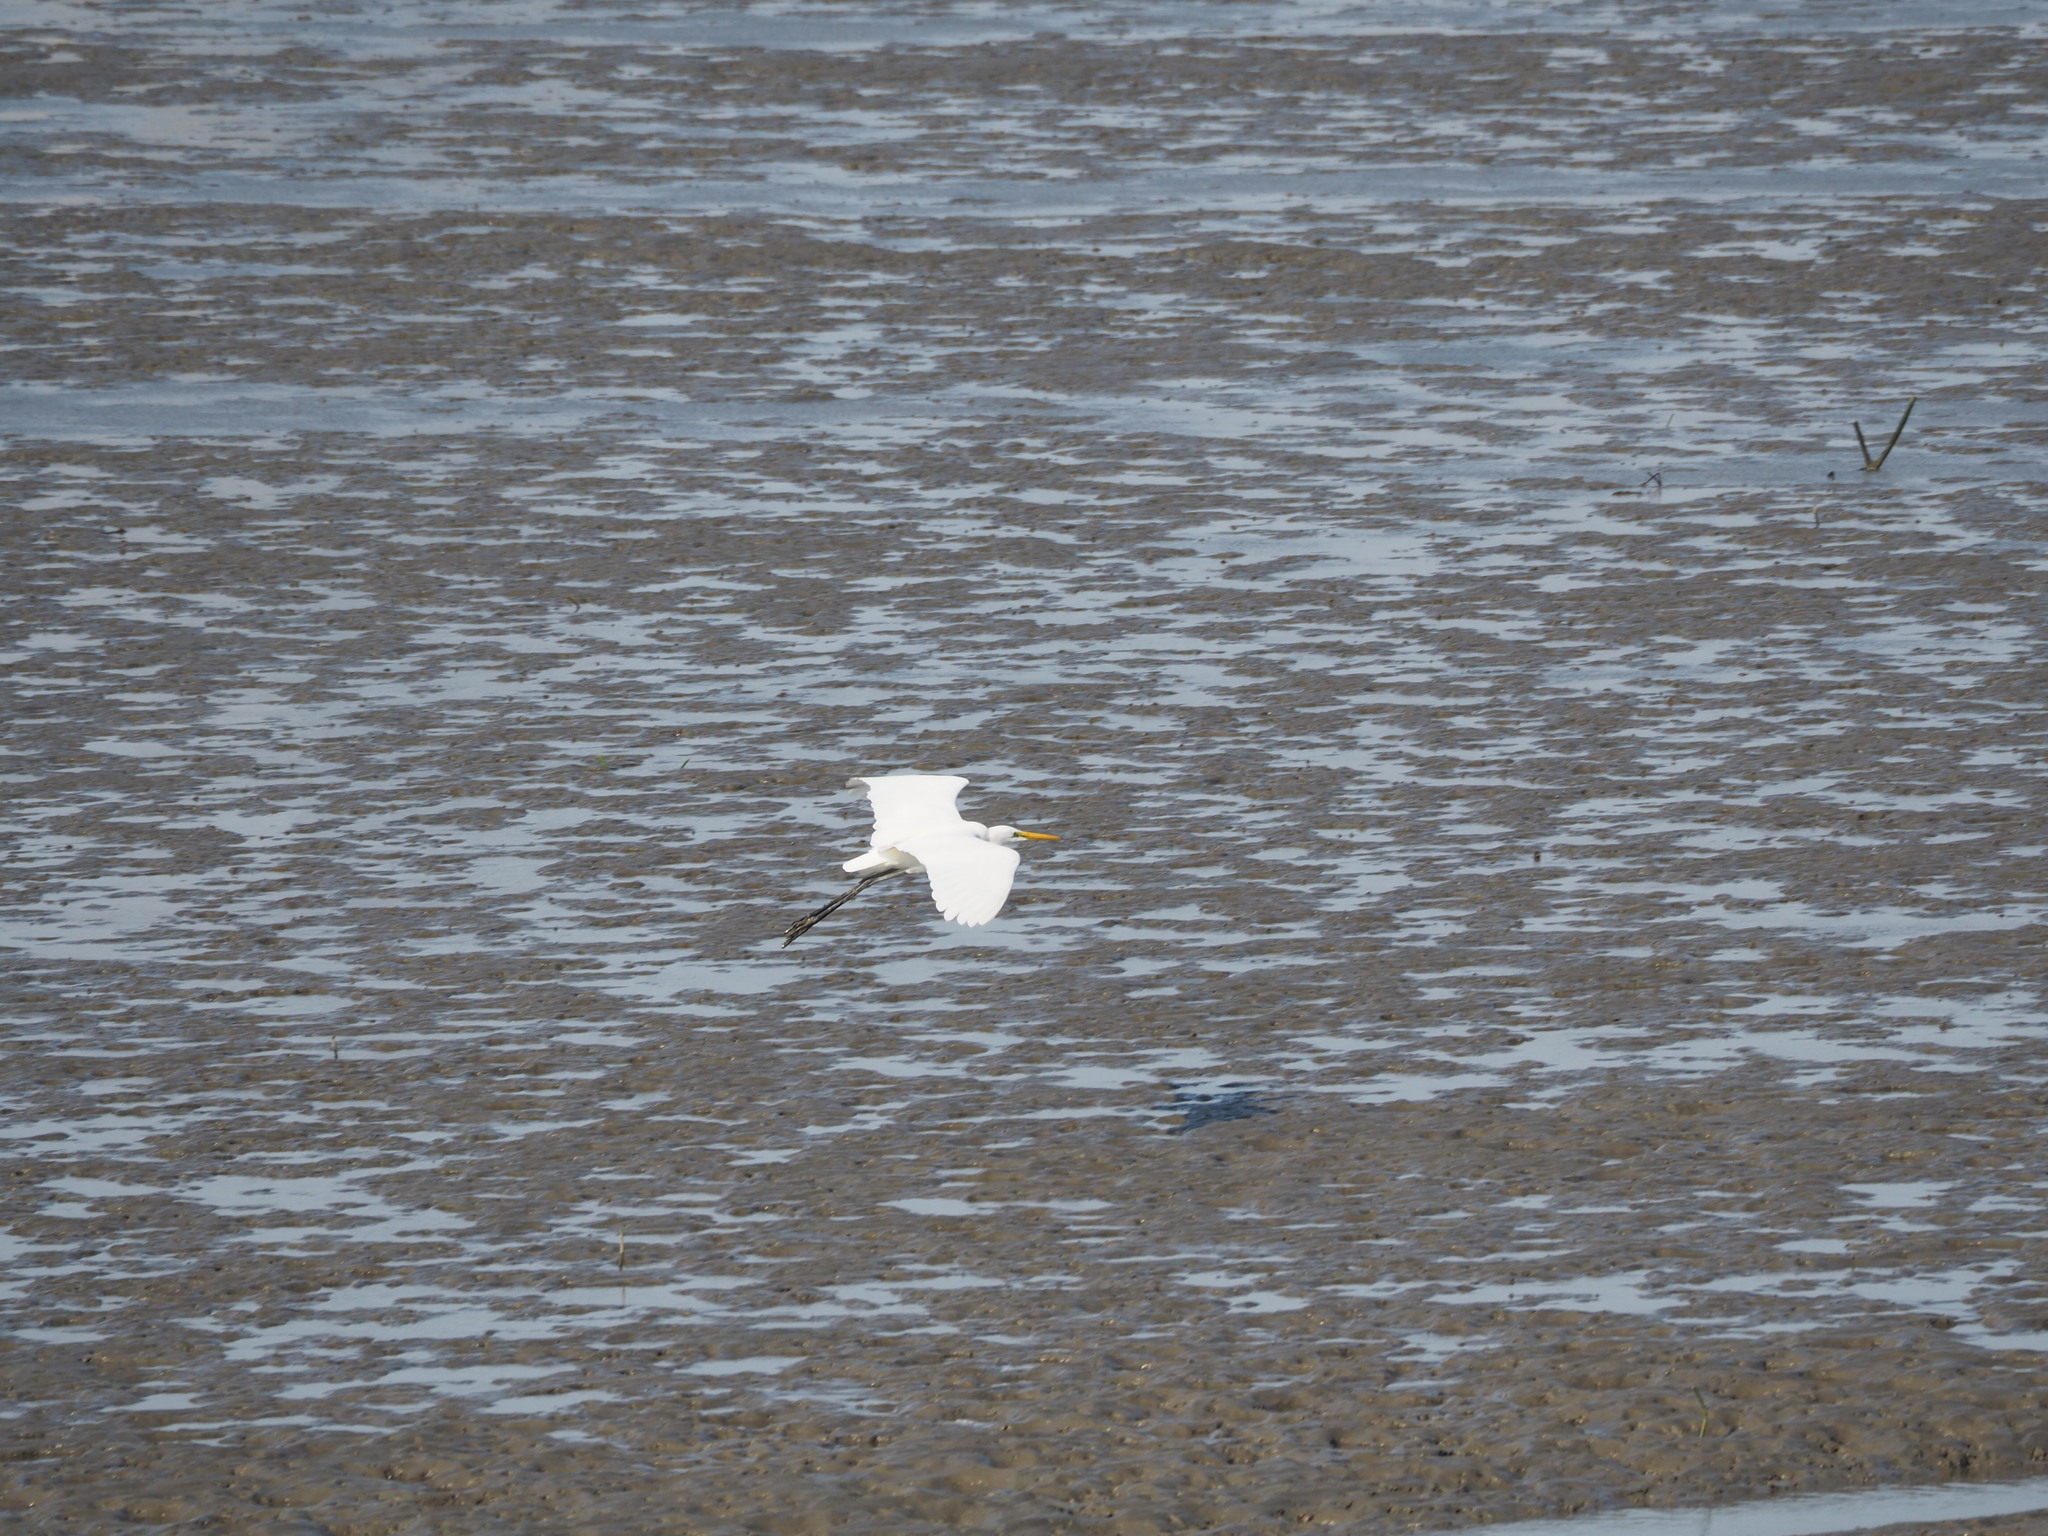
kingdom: Animalia
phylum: Chordata
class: Aves
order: Pelecaniformes
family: Ardeidae
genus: Ardea
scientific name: Ardea alba
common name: Great egret
